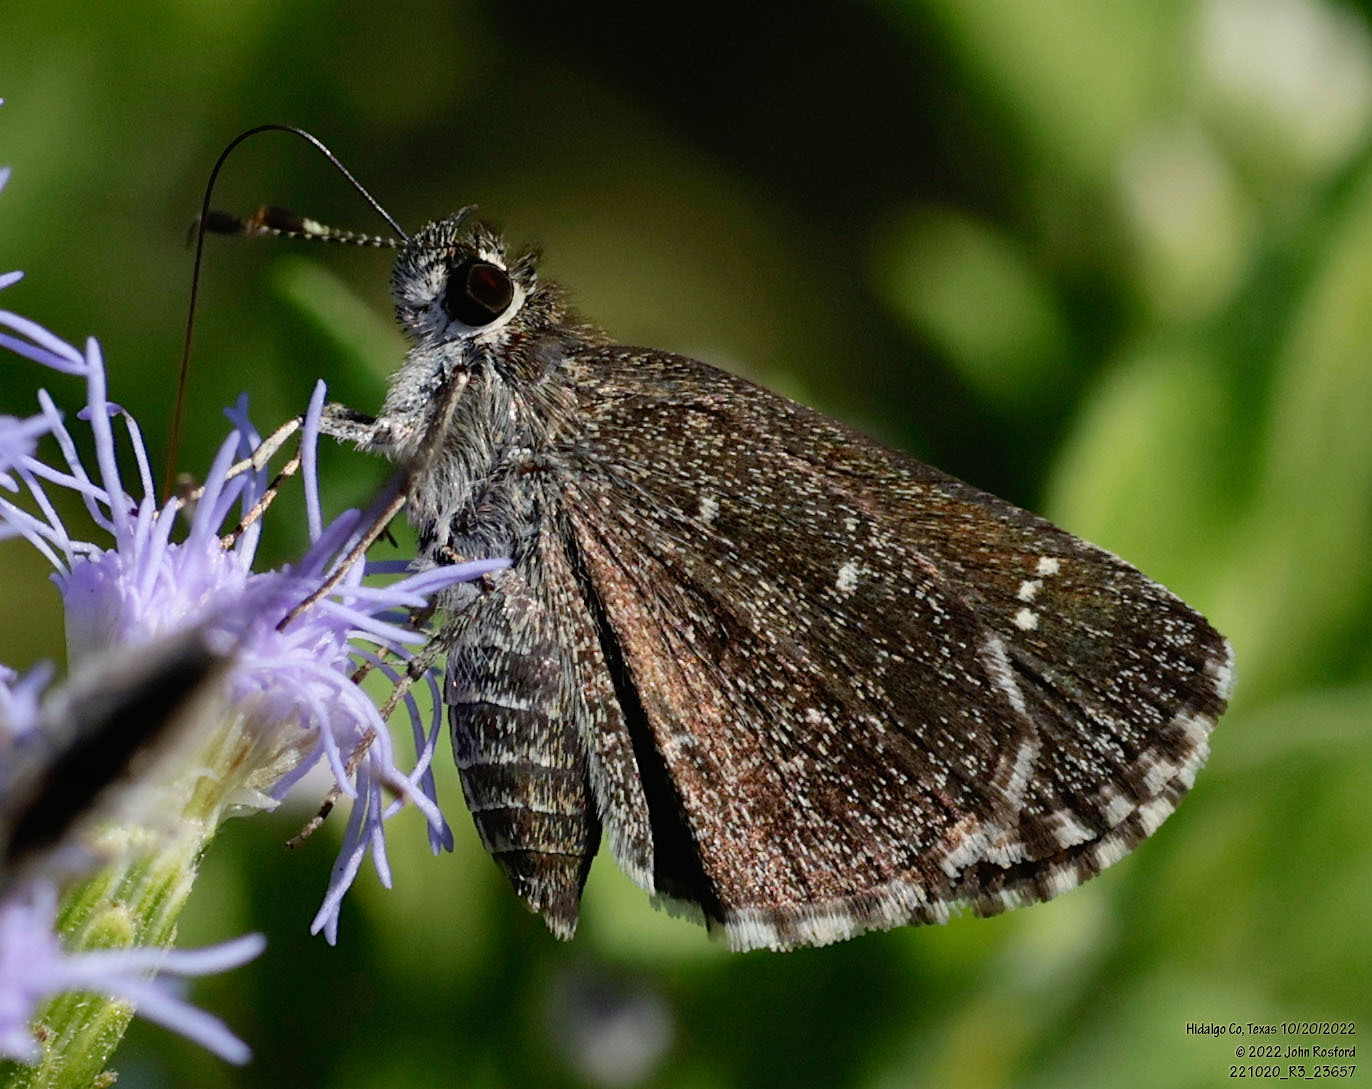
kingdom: Animalia
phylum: Arthropoda
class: Insecta
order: Lepidoptera
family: Hesperiidae
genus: Mastor
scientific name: Mastor celia
